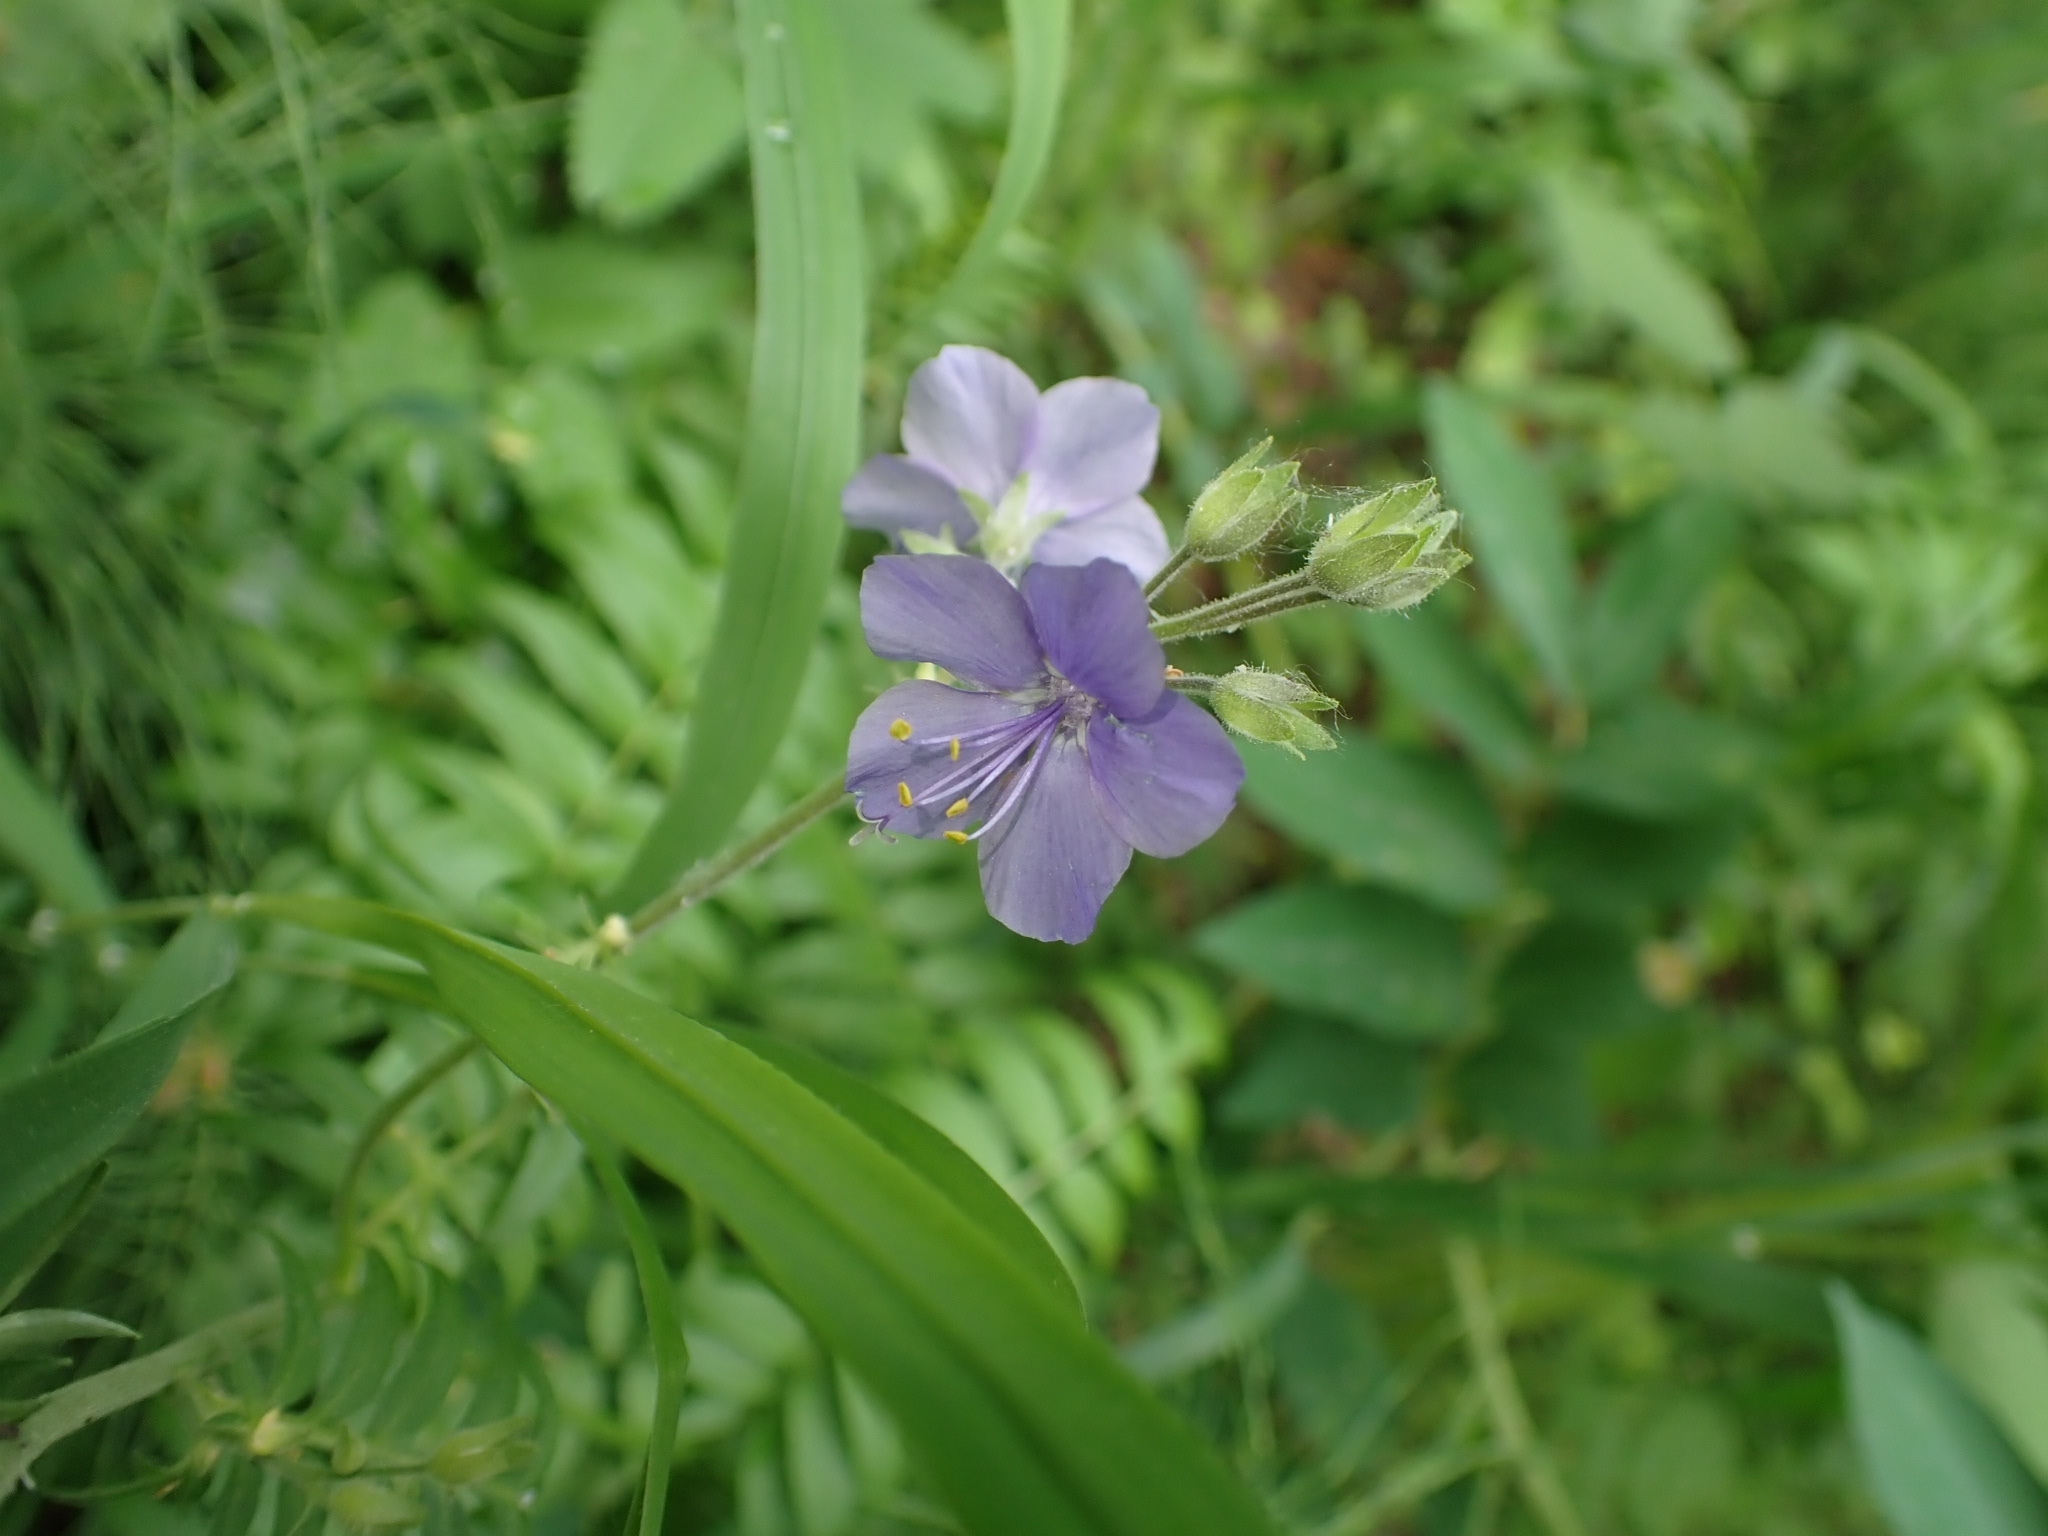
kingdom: Plantae
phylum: Tracheophyta
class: Magnoliopsida
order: Ericales
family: Polemoniaceae
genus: Polemonium
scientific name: Polemonium caeruleum
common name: Jacob's-ladder
